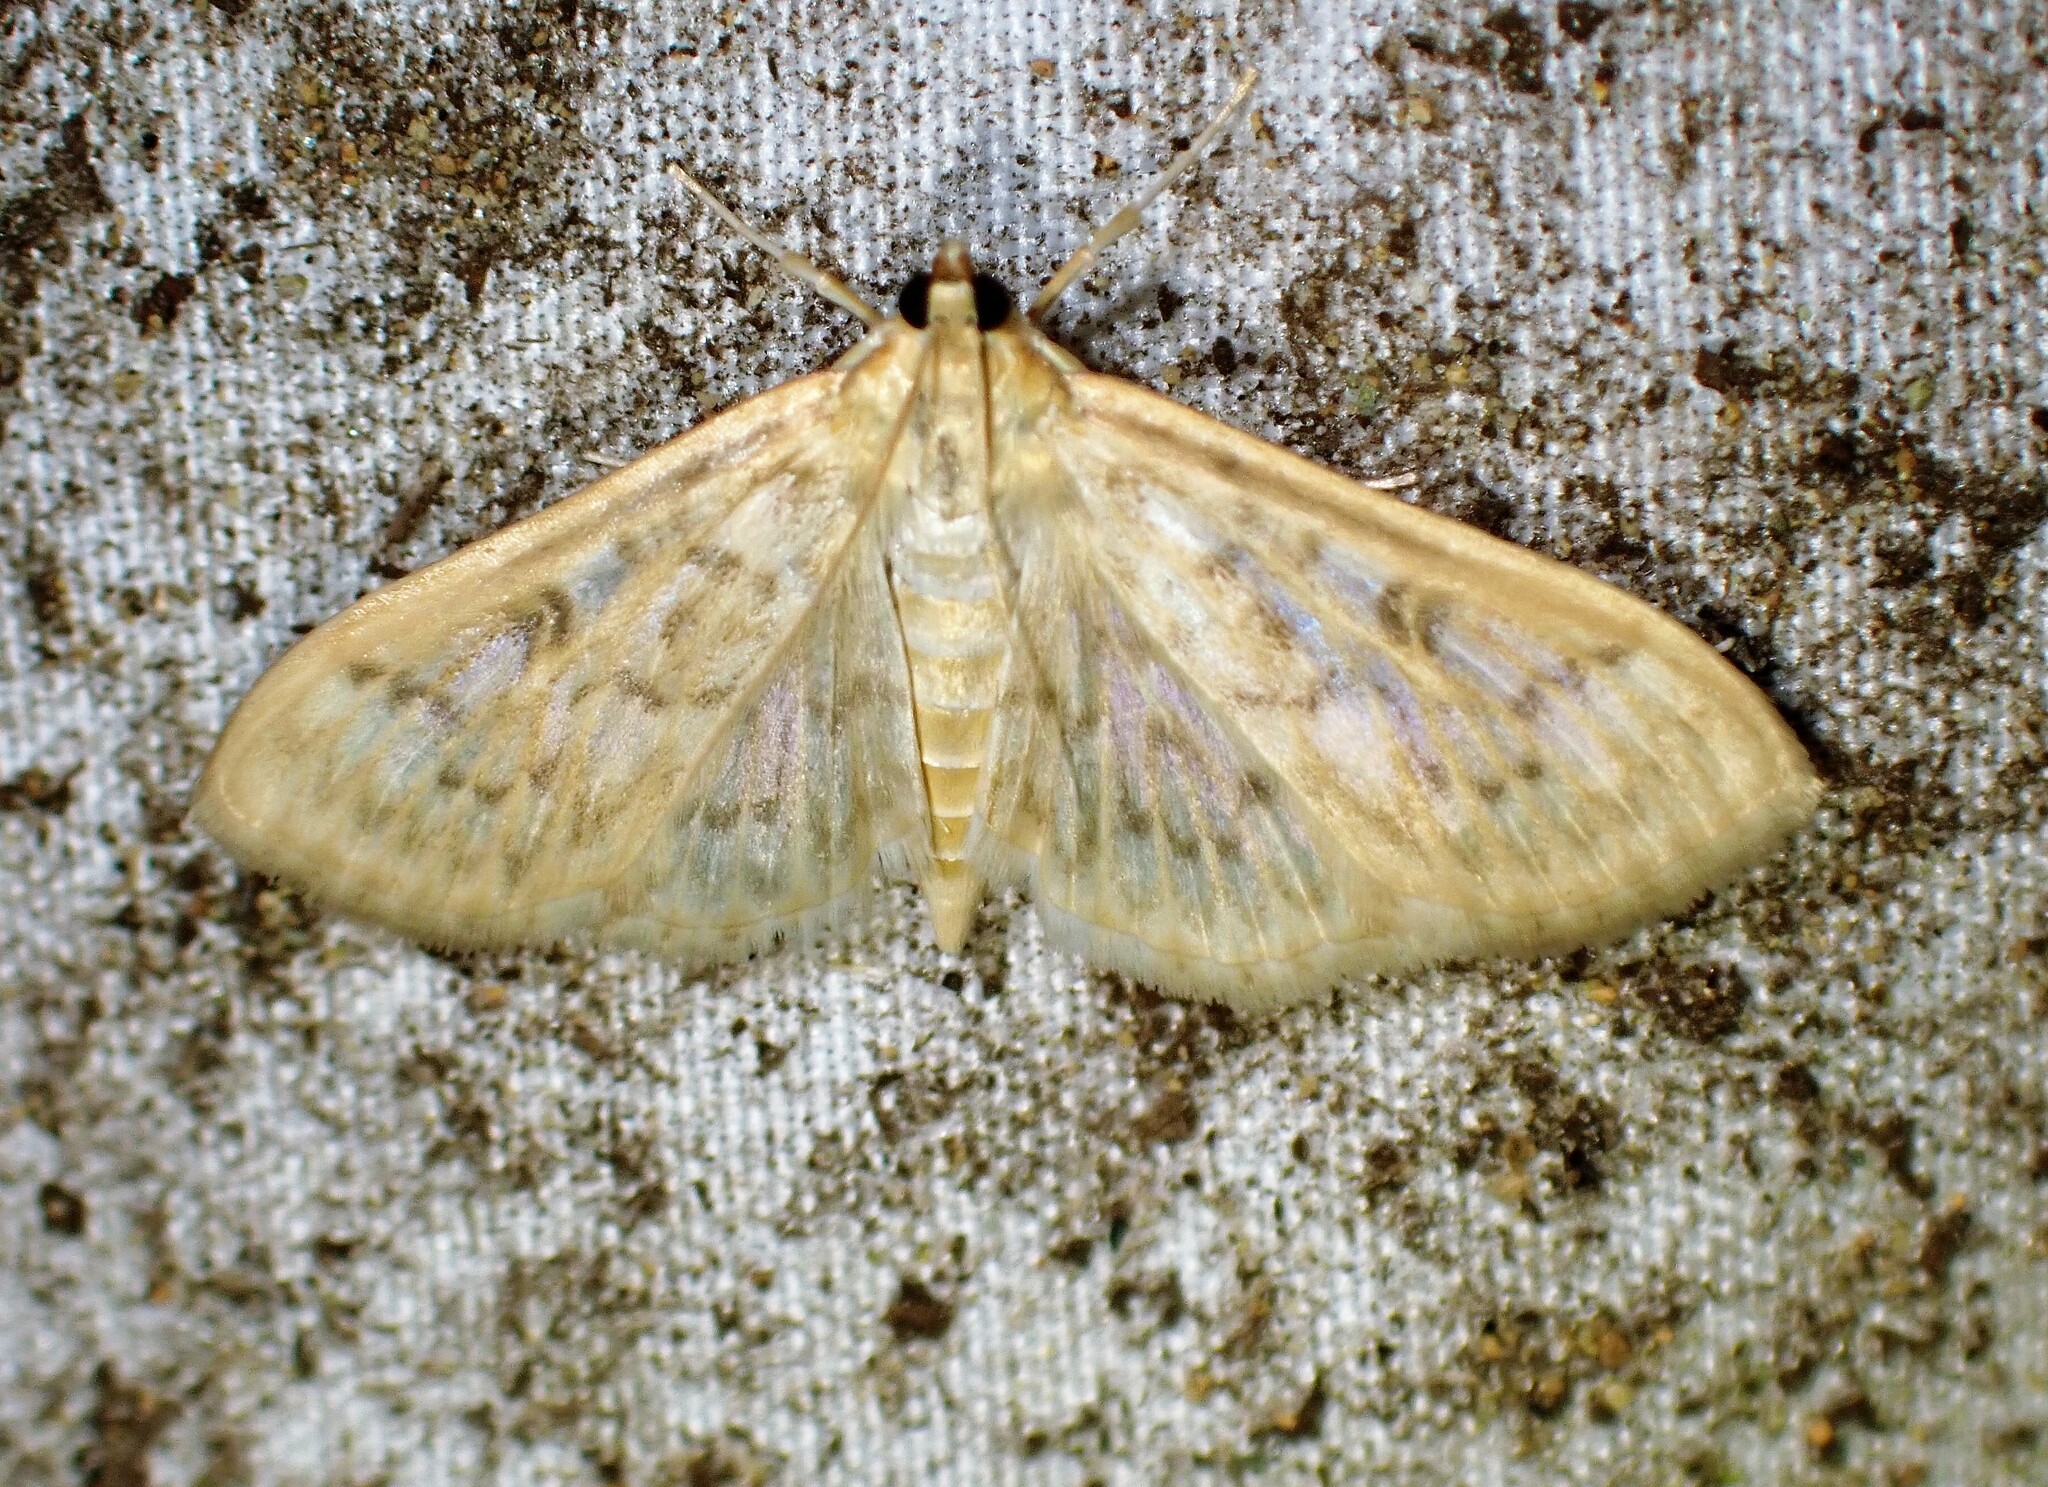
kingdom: Animalia
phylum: Arthropoda
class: Insecta
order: Lepidoptera
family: Crambidae
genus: Herpetogramma
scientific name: Herpetogramma aquilonalis
